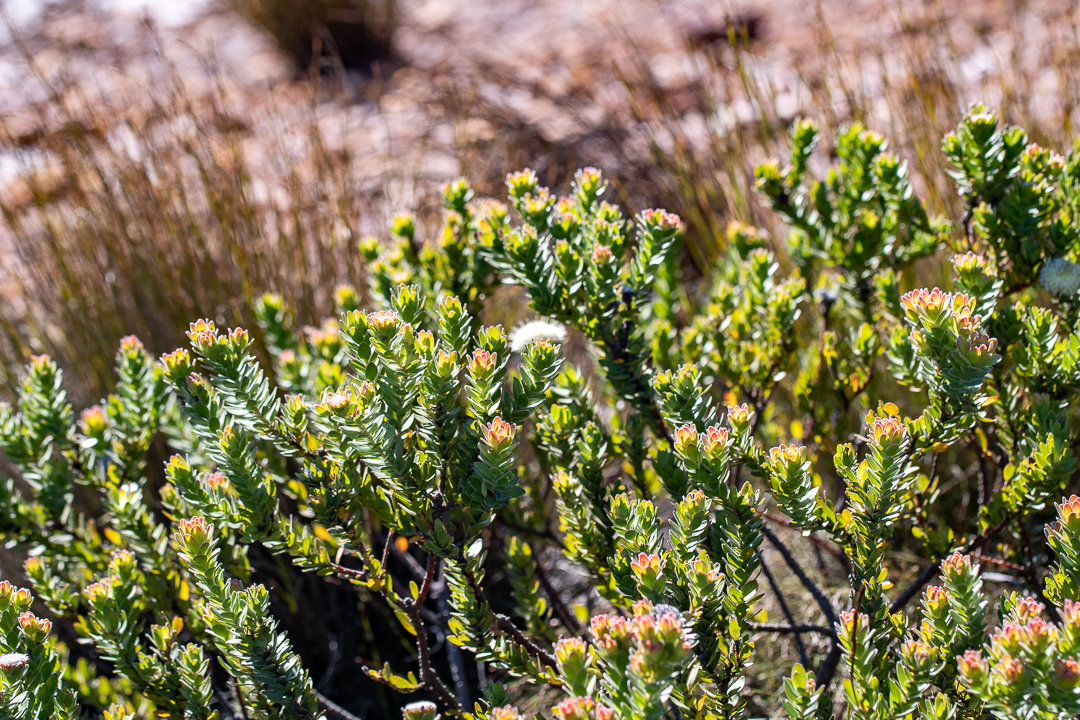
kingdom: Plantae
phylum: Tracheophyta
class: Magnoliopsida
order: Proteales
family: Proteaceae
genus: Diastella
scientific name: Diastella thymelaeoides
